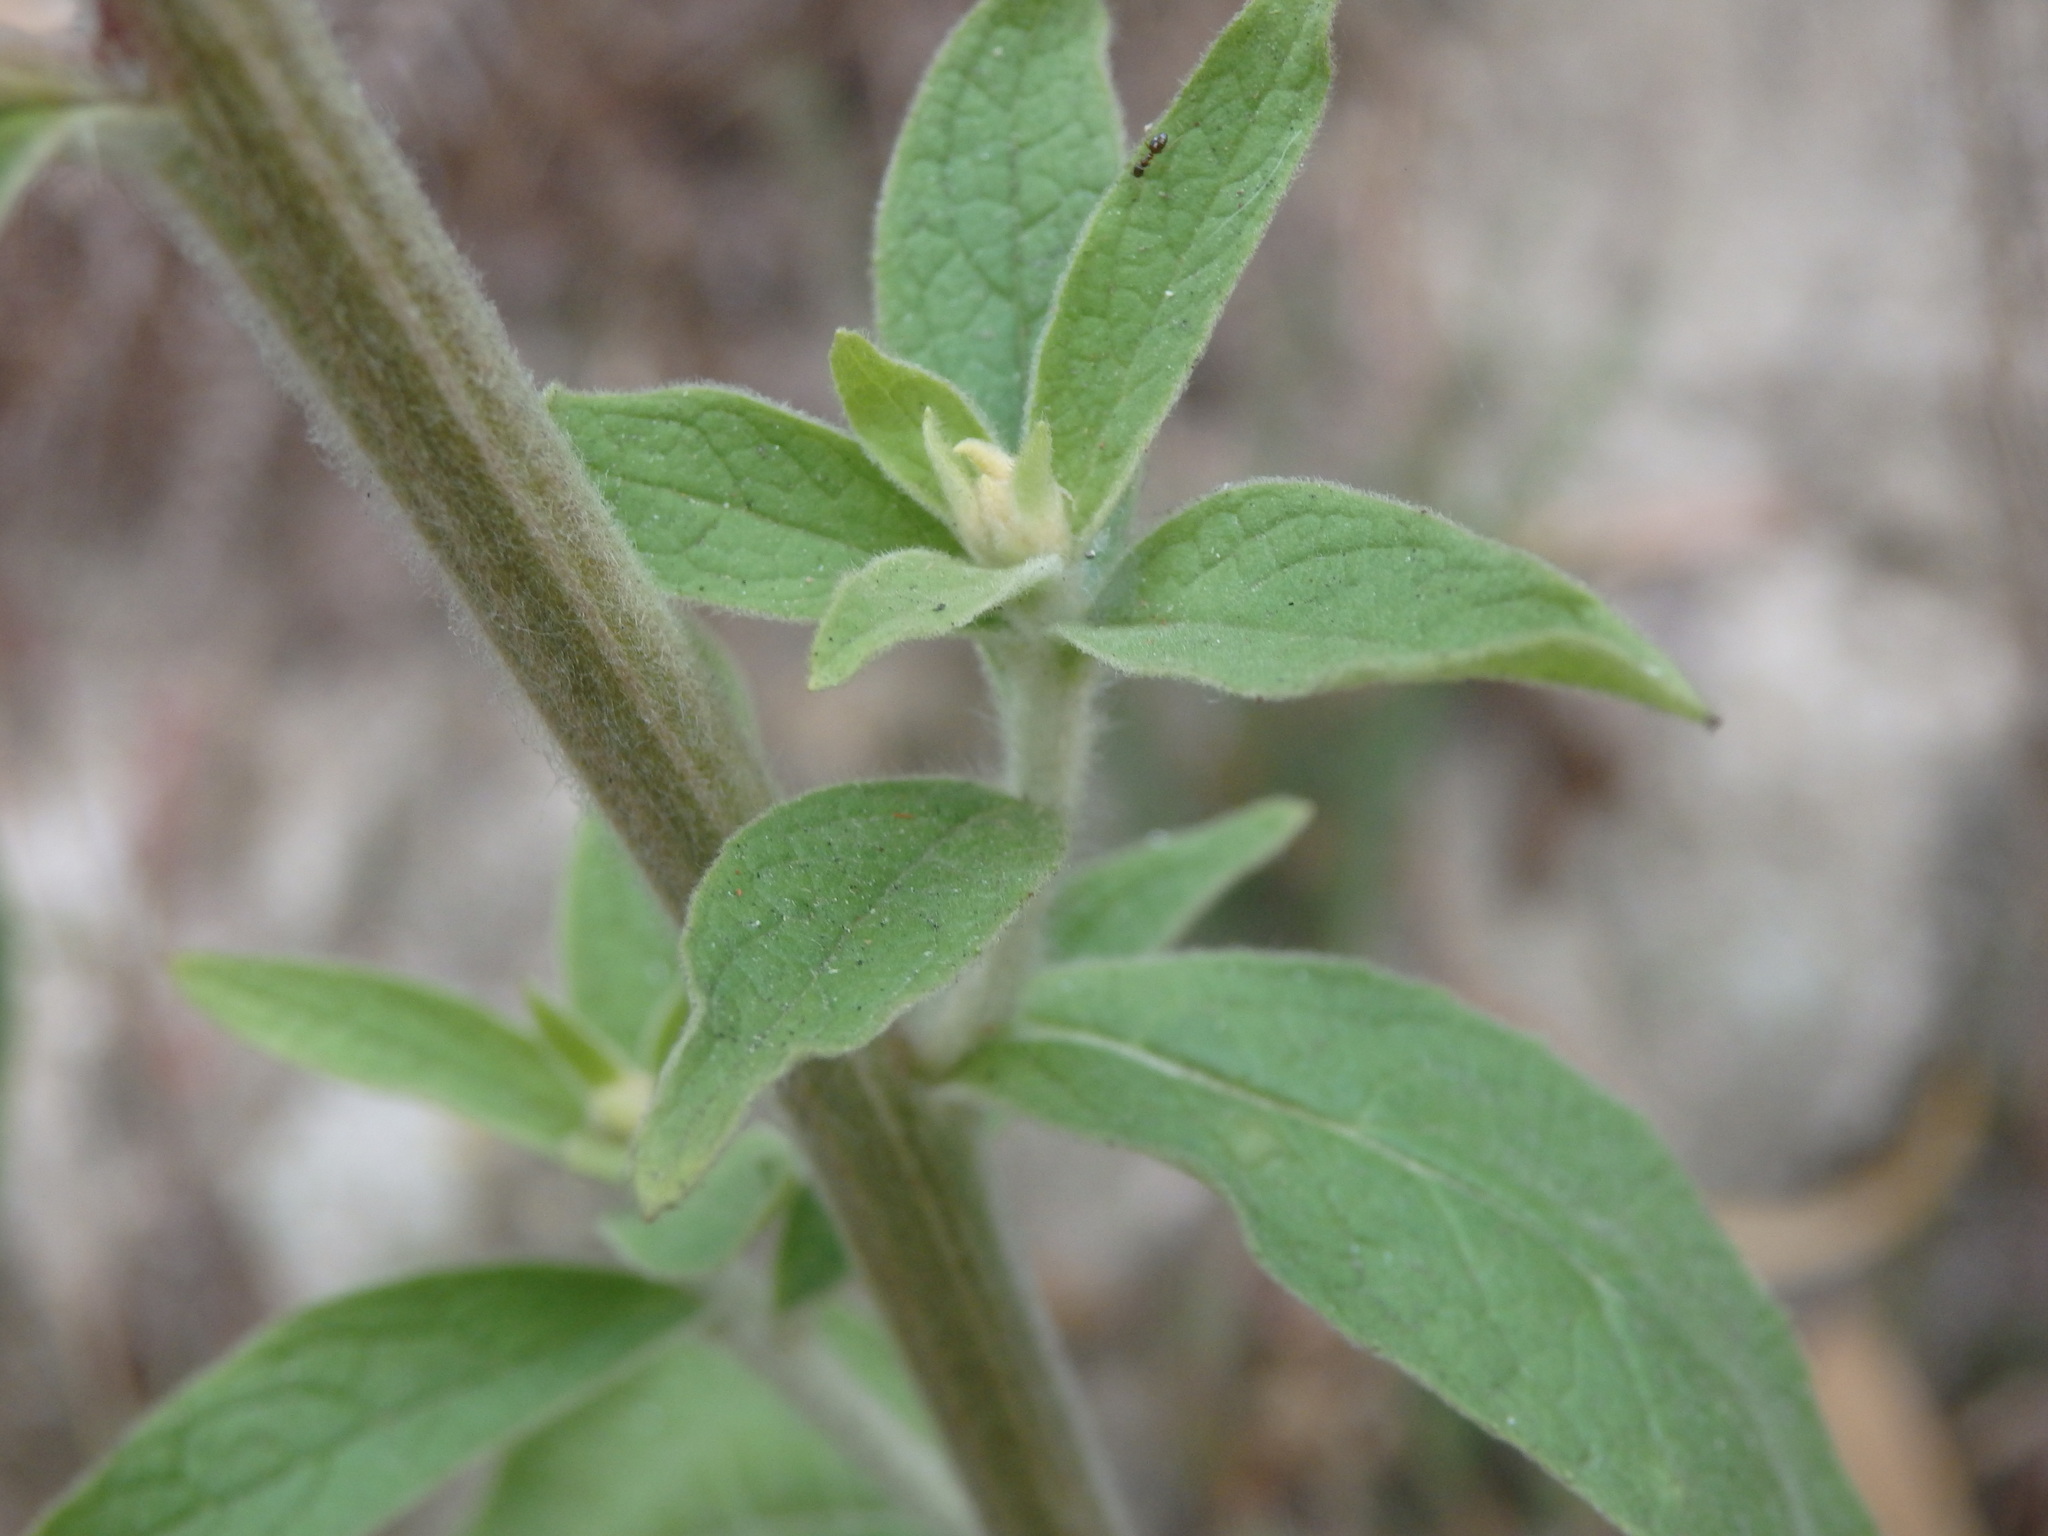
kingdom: Plantae
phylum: Tracheophyta
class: Magnoliopsida
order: Asterales
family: Asteraceae
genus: Pentanema
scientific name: Pentanema squarrosum
